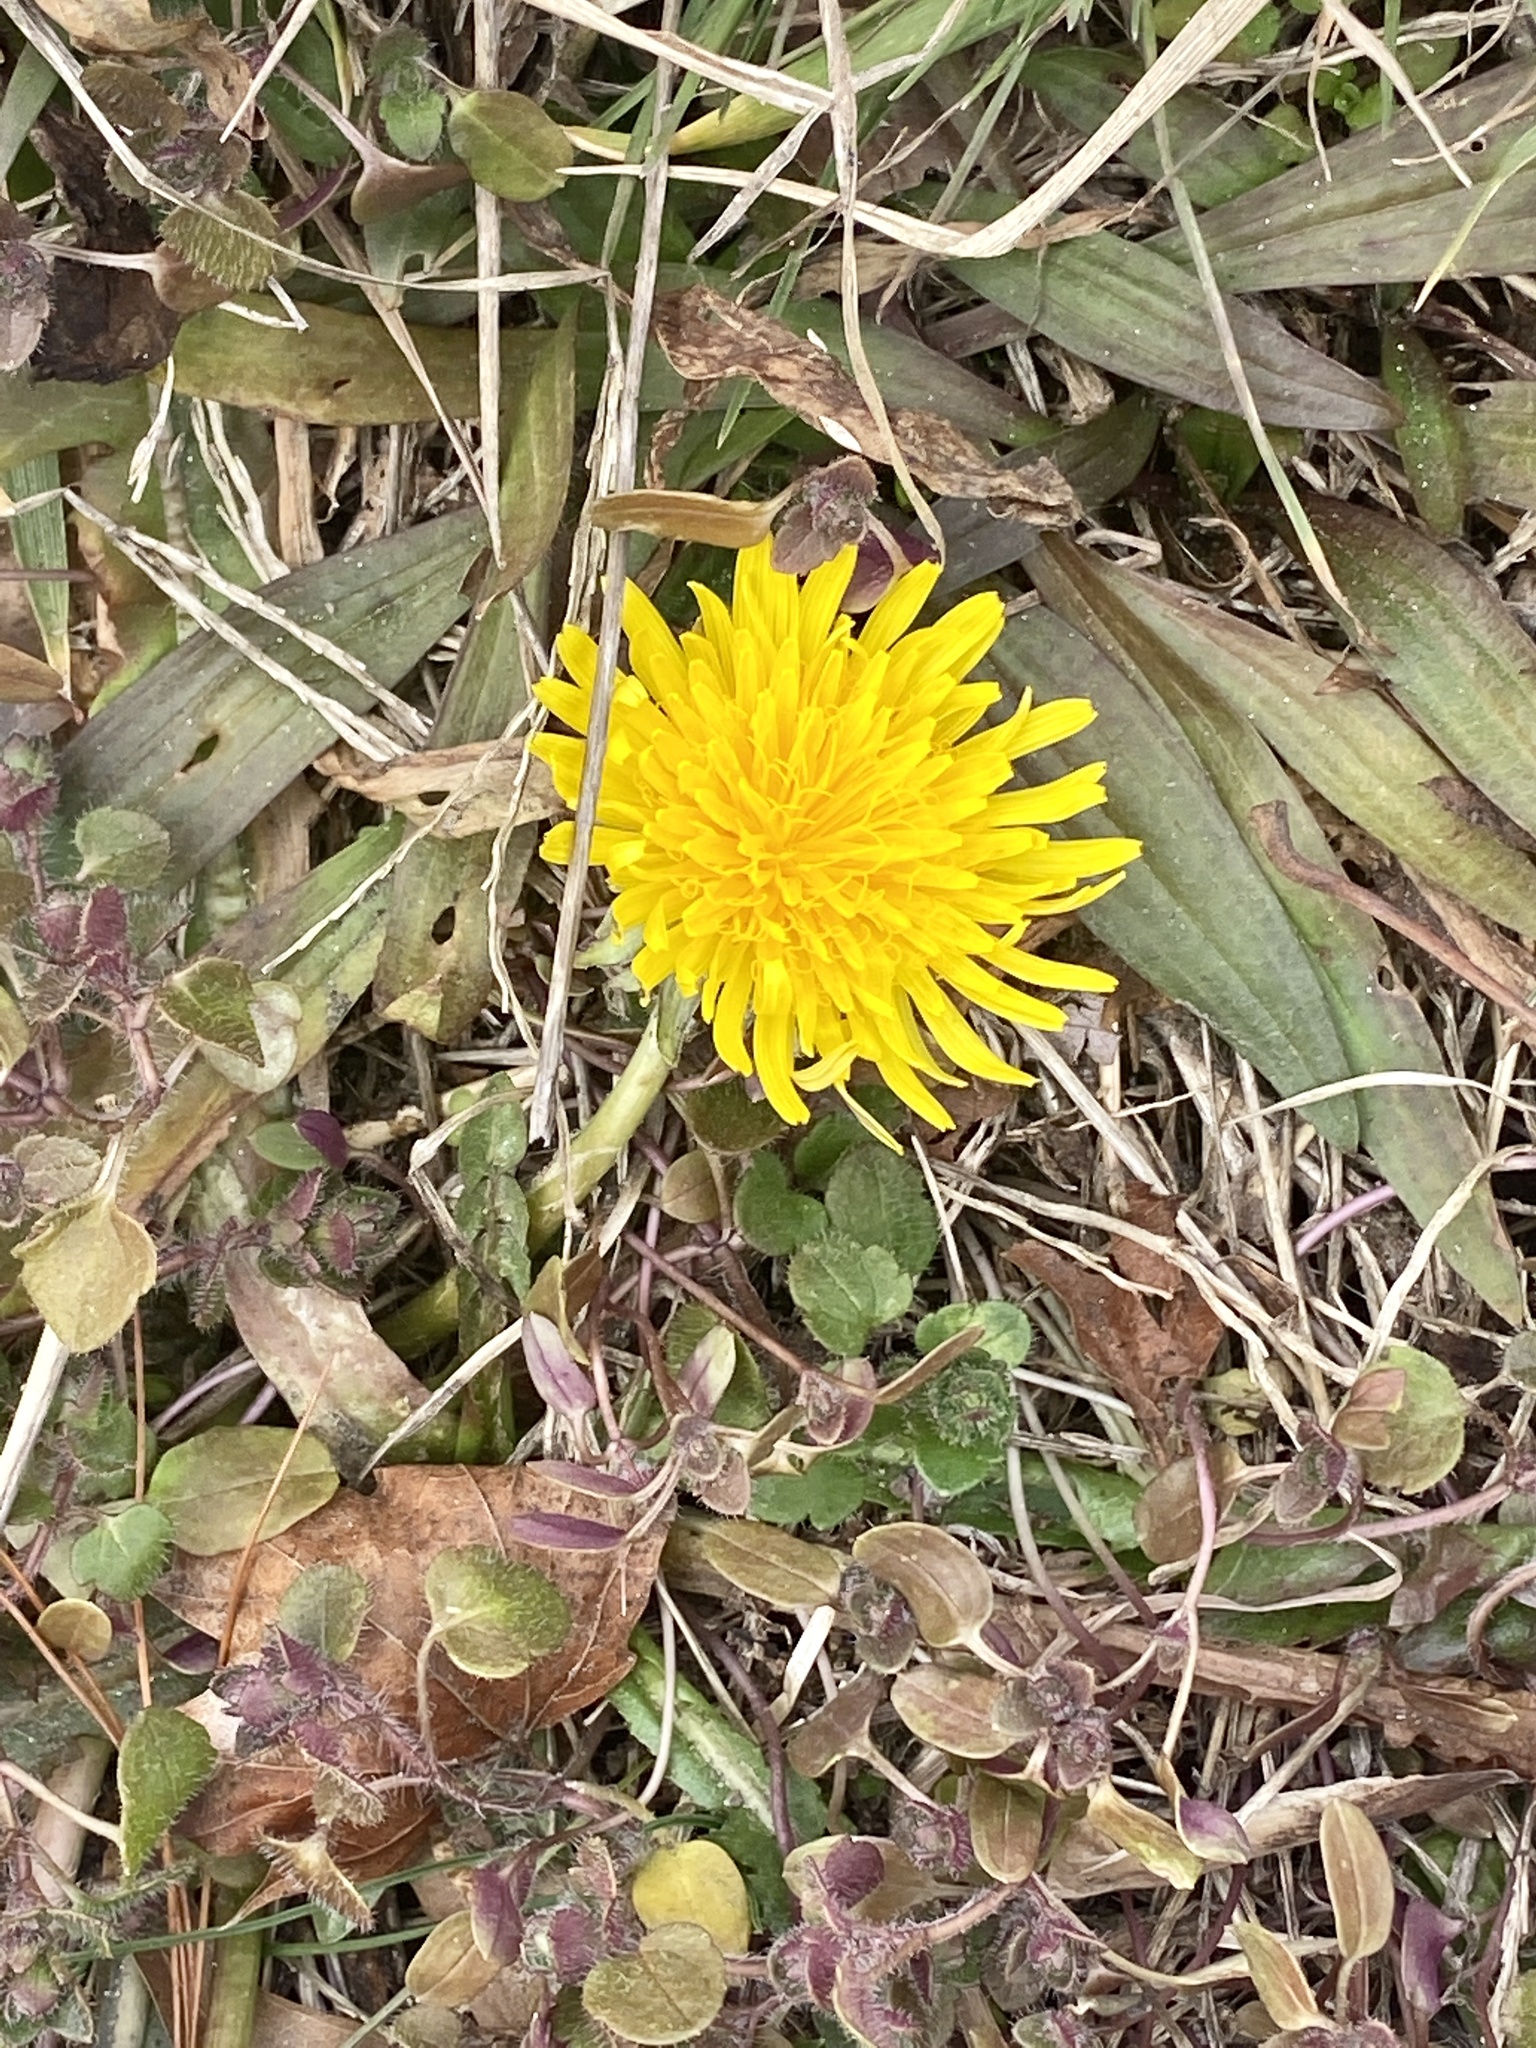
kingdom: Plantae
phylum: Tracheophyta
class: Magnoliopsida
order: Asterales
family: Asteraceae
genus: Taraxacum
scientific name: Taraxacum
